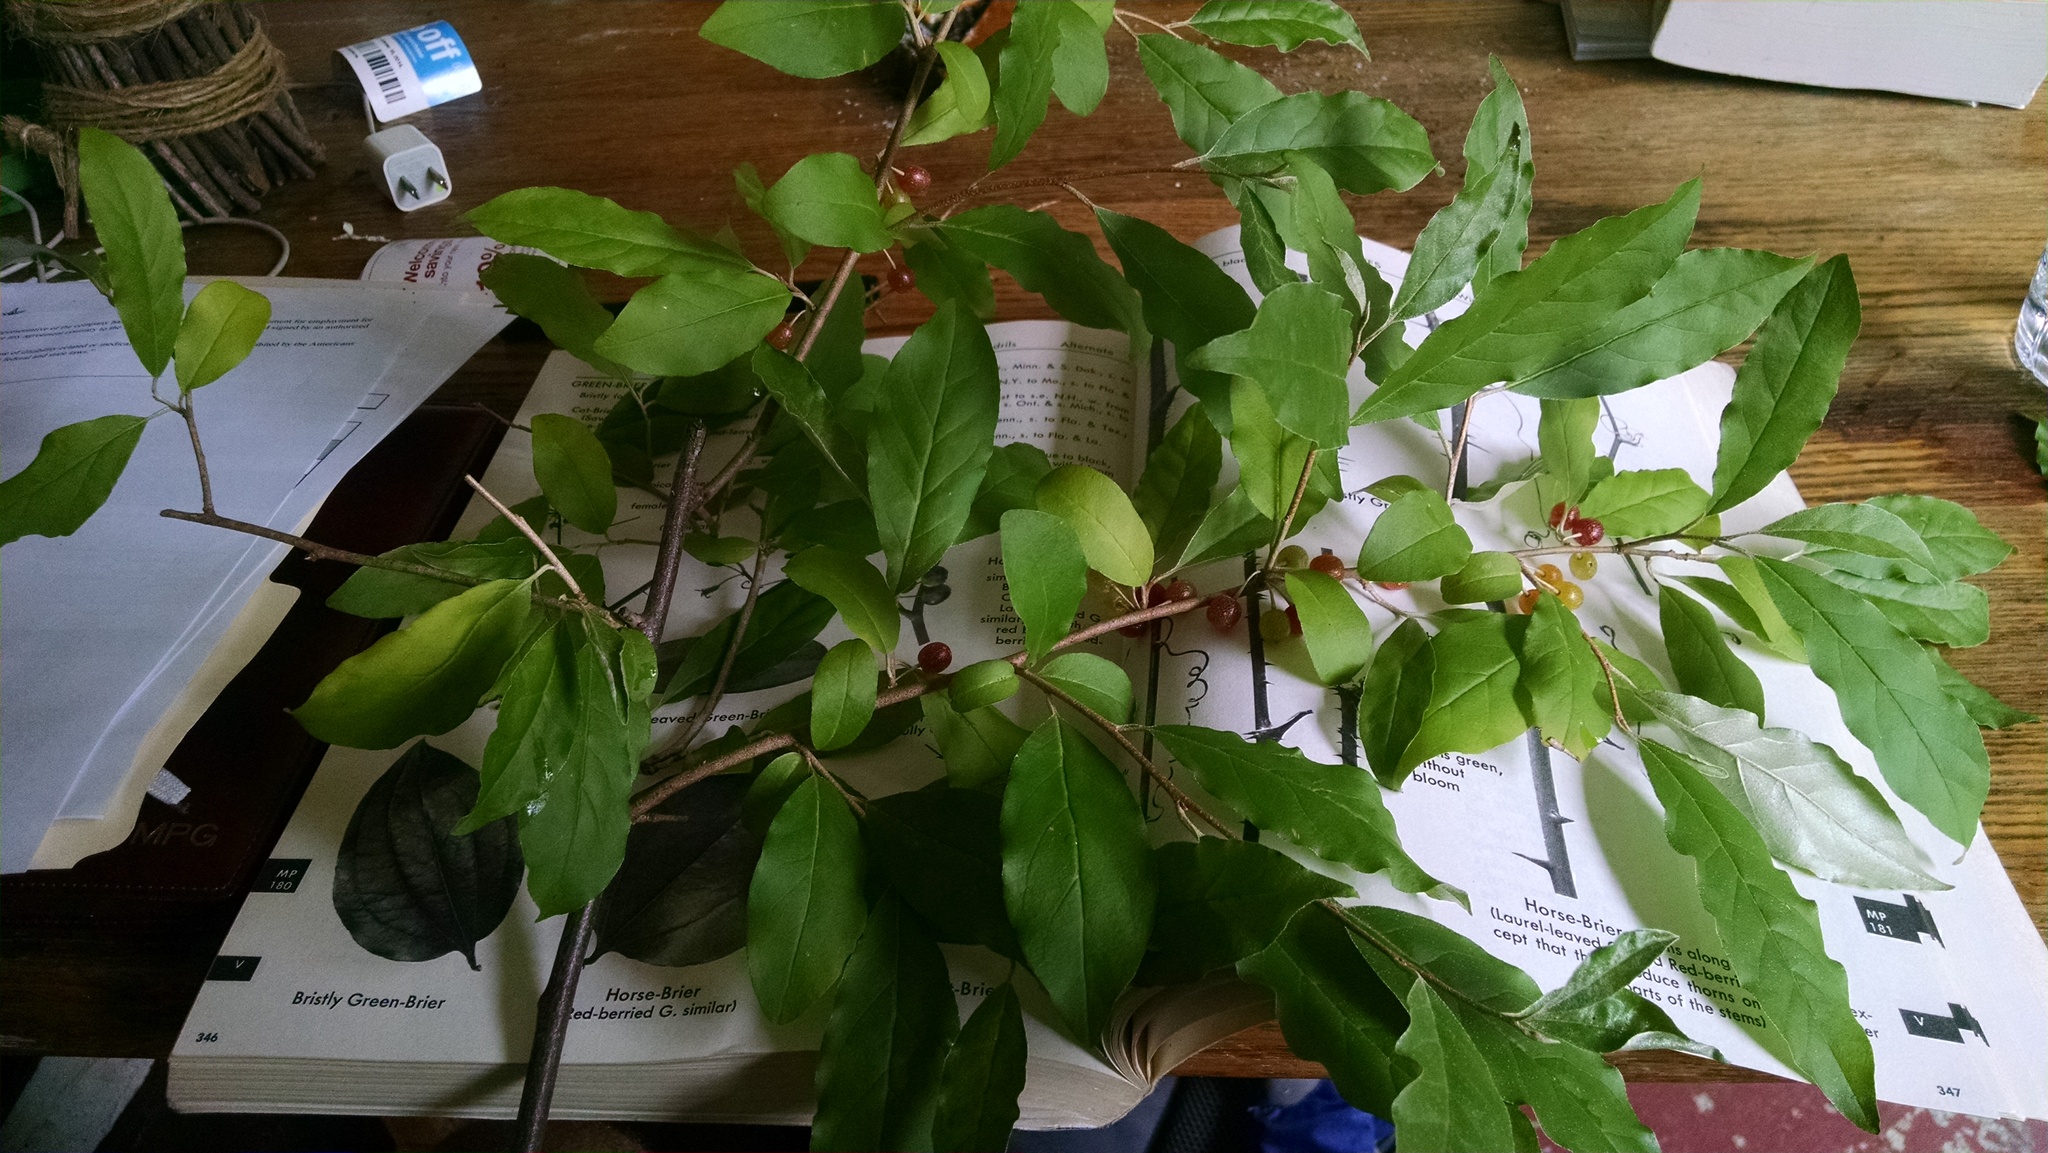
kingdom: Plantae
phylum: Tracheophyta
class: Magnoliopsida
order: Rosales
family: Elaeagnaceae
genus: Elaeagnus
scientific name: Elaeagnus umbellata
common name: Autumn olive
